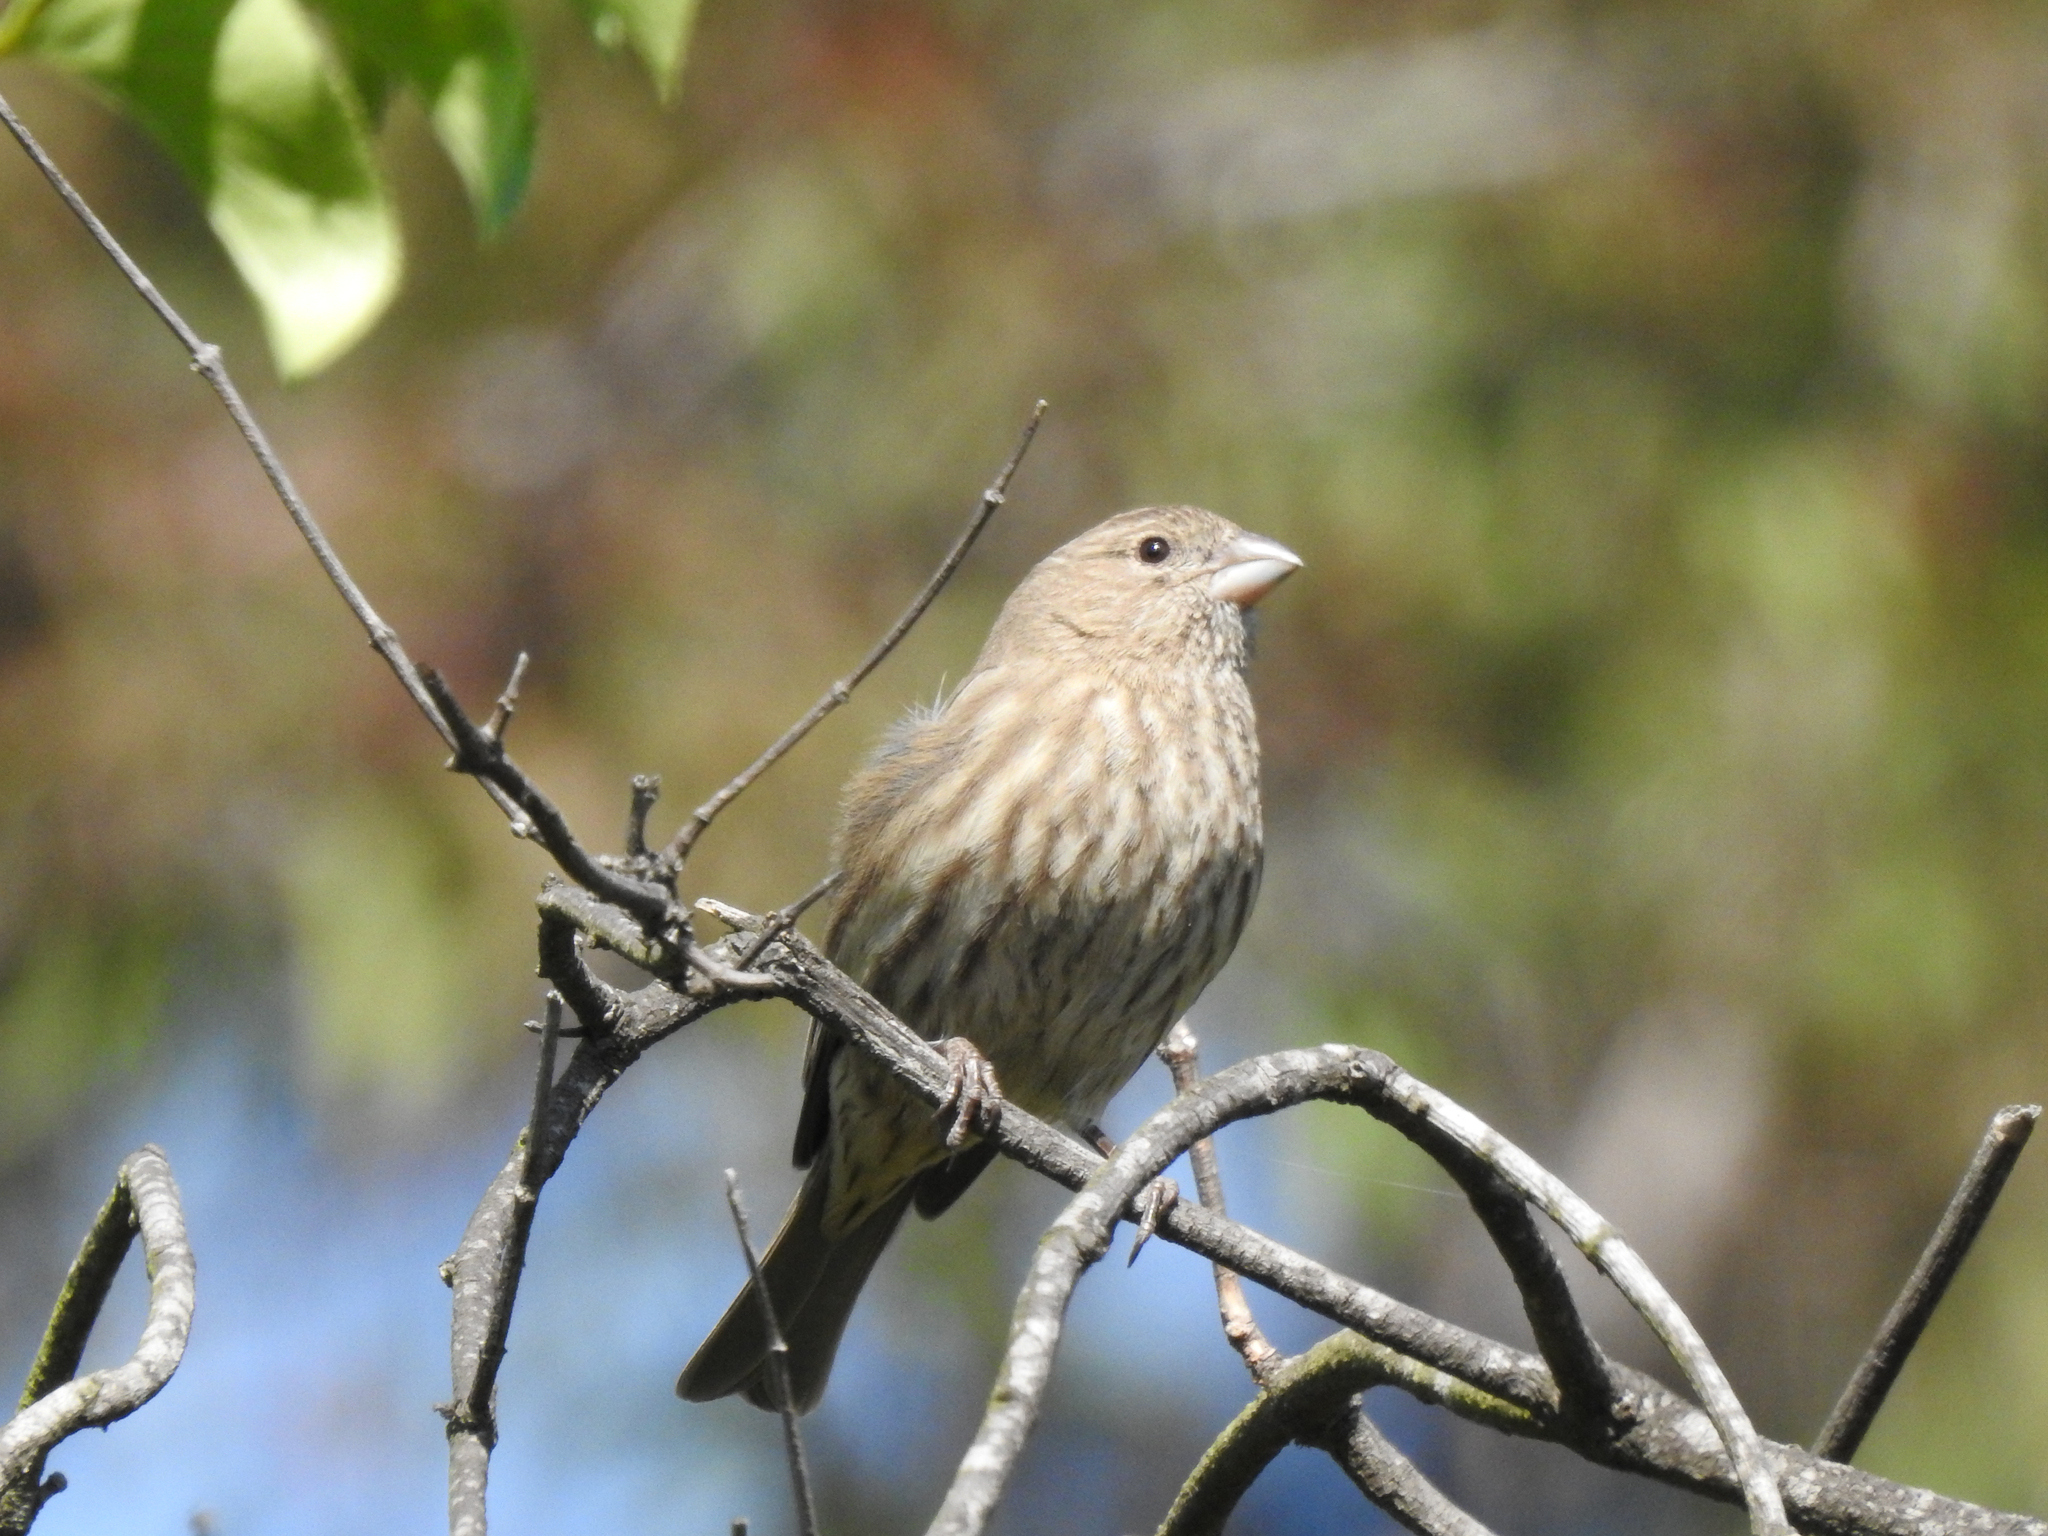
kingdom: Animalia
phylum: Chordata
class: Aves
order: Passeriformes
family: Fringillidae
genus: Haemorhous
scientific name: Haemorhous mexicanus
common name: House finch
